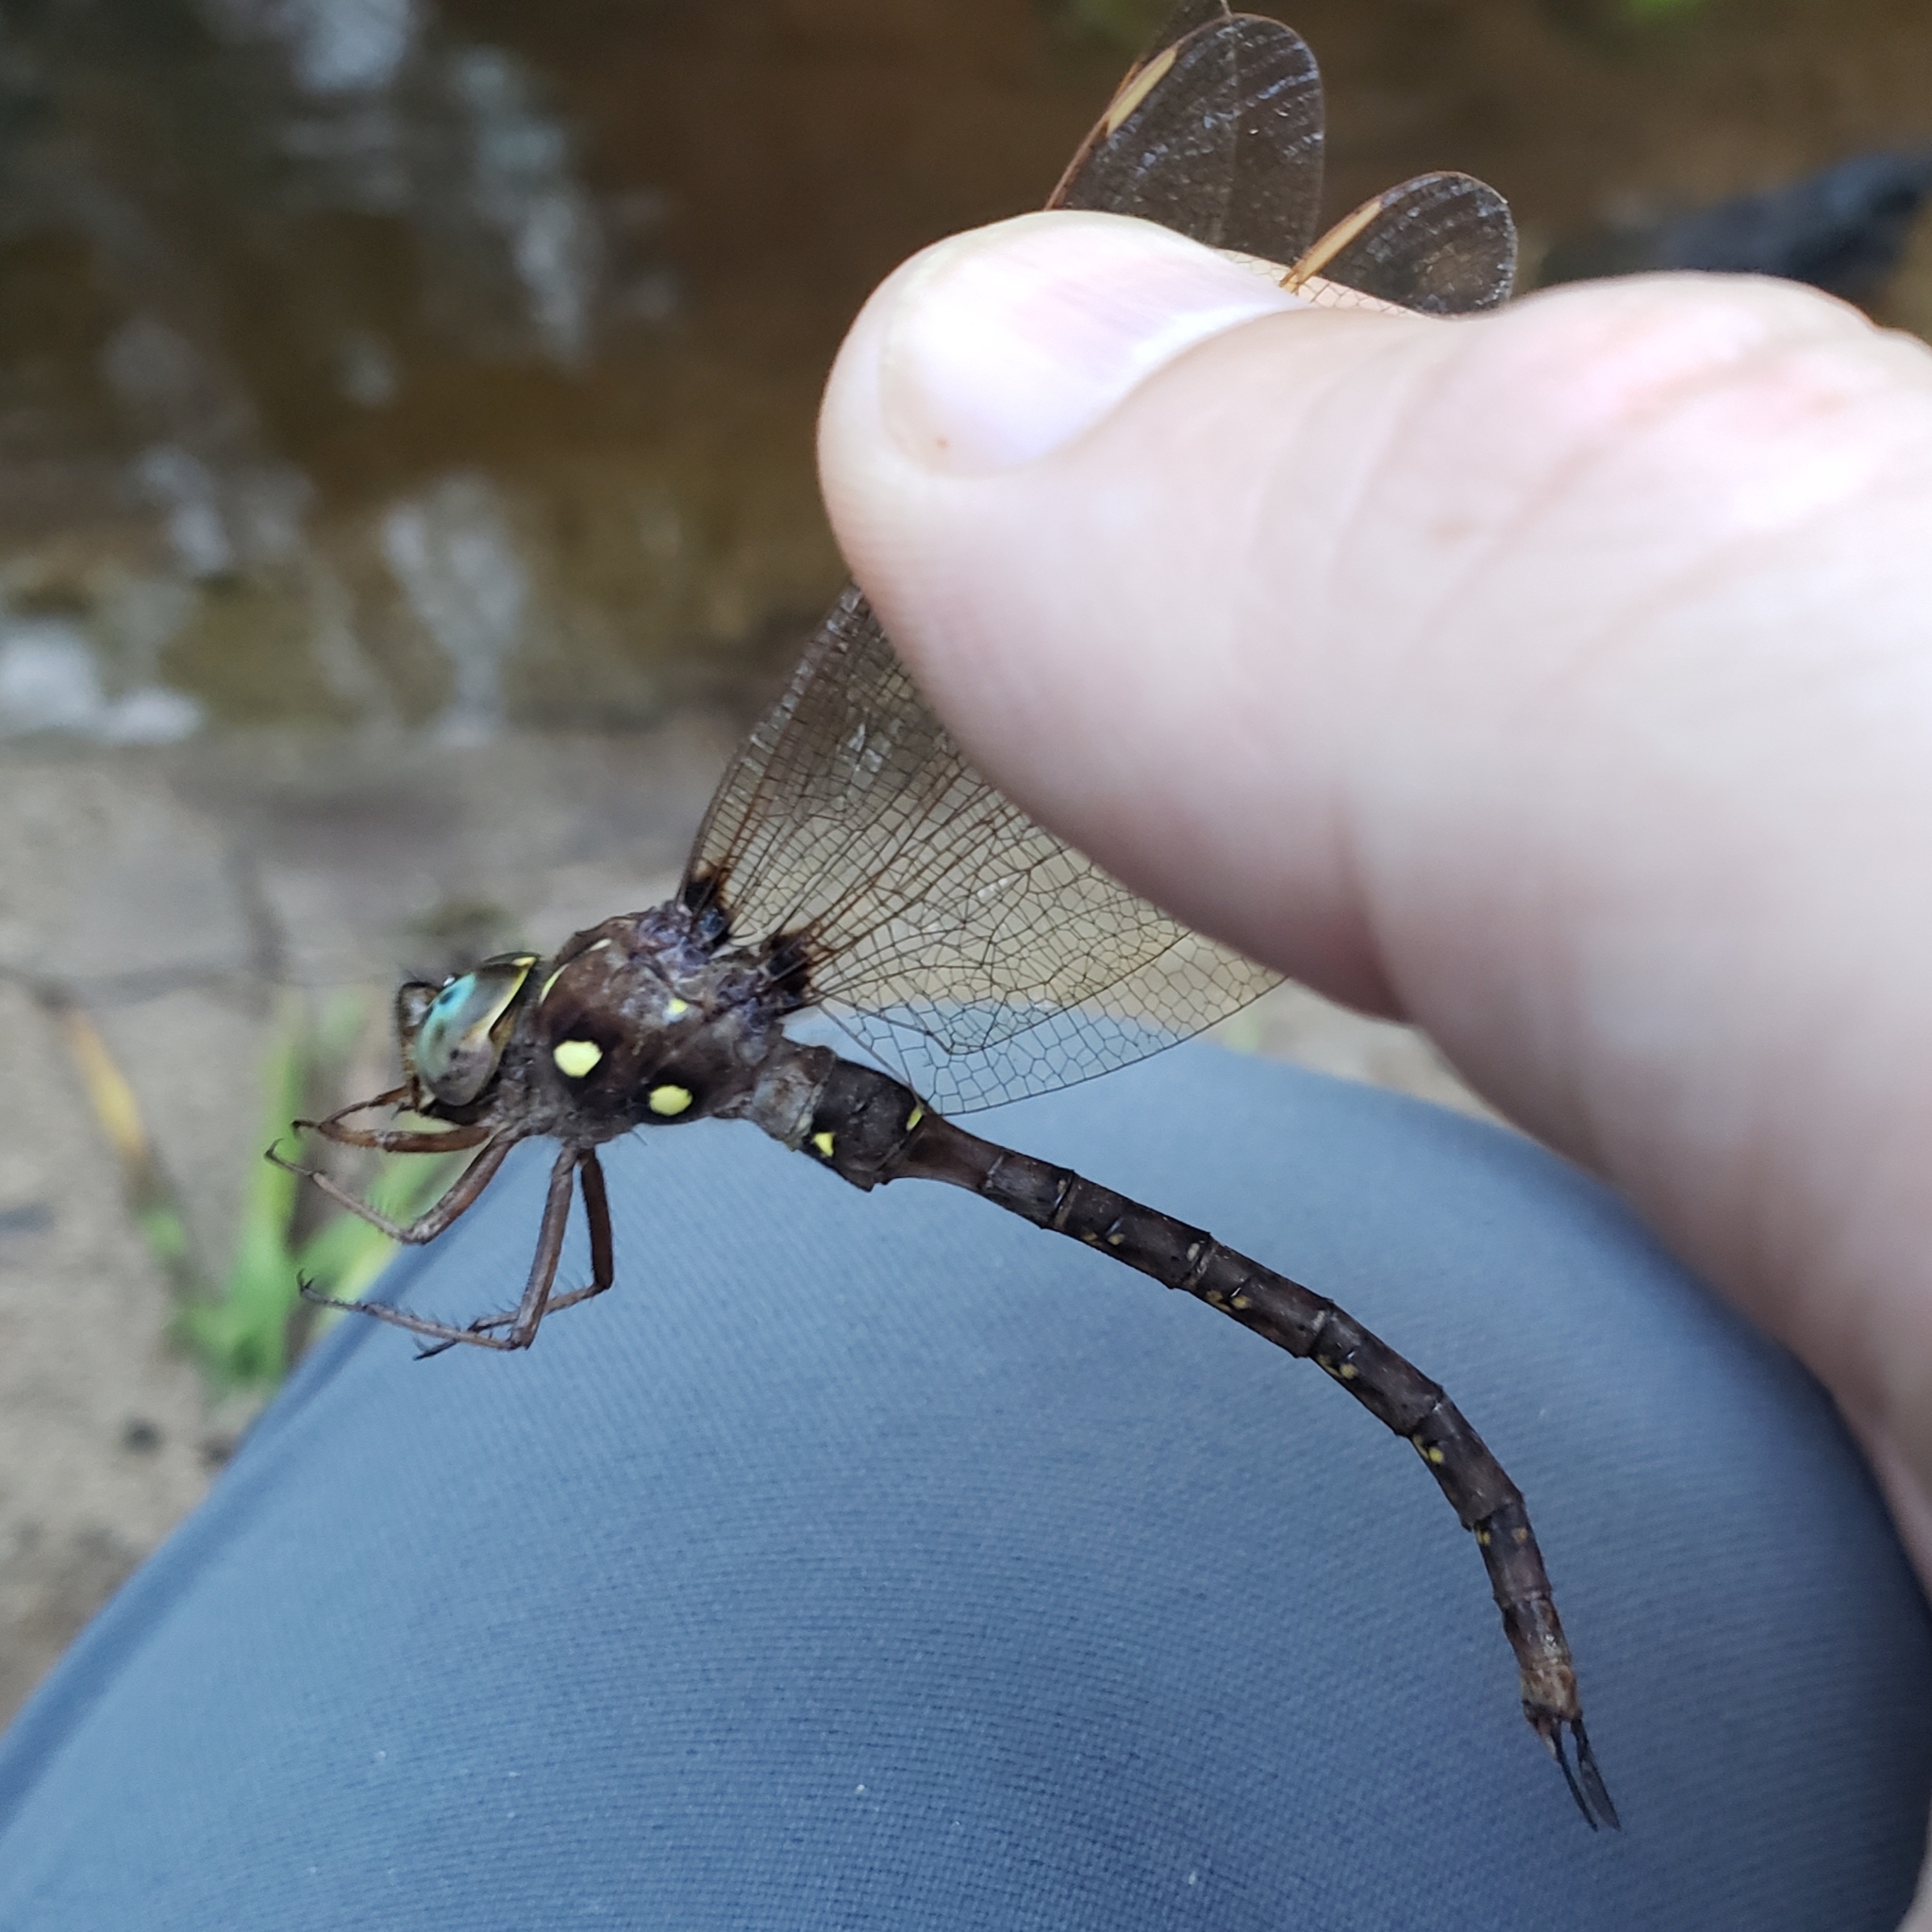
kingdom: Animalia
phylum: Arthropoda
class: Insecta
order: Odonata
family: Aeshnidae
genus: Boyeria
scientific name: Boyeria vinosa
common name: Fawn darner
